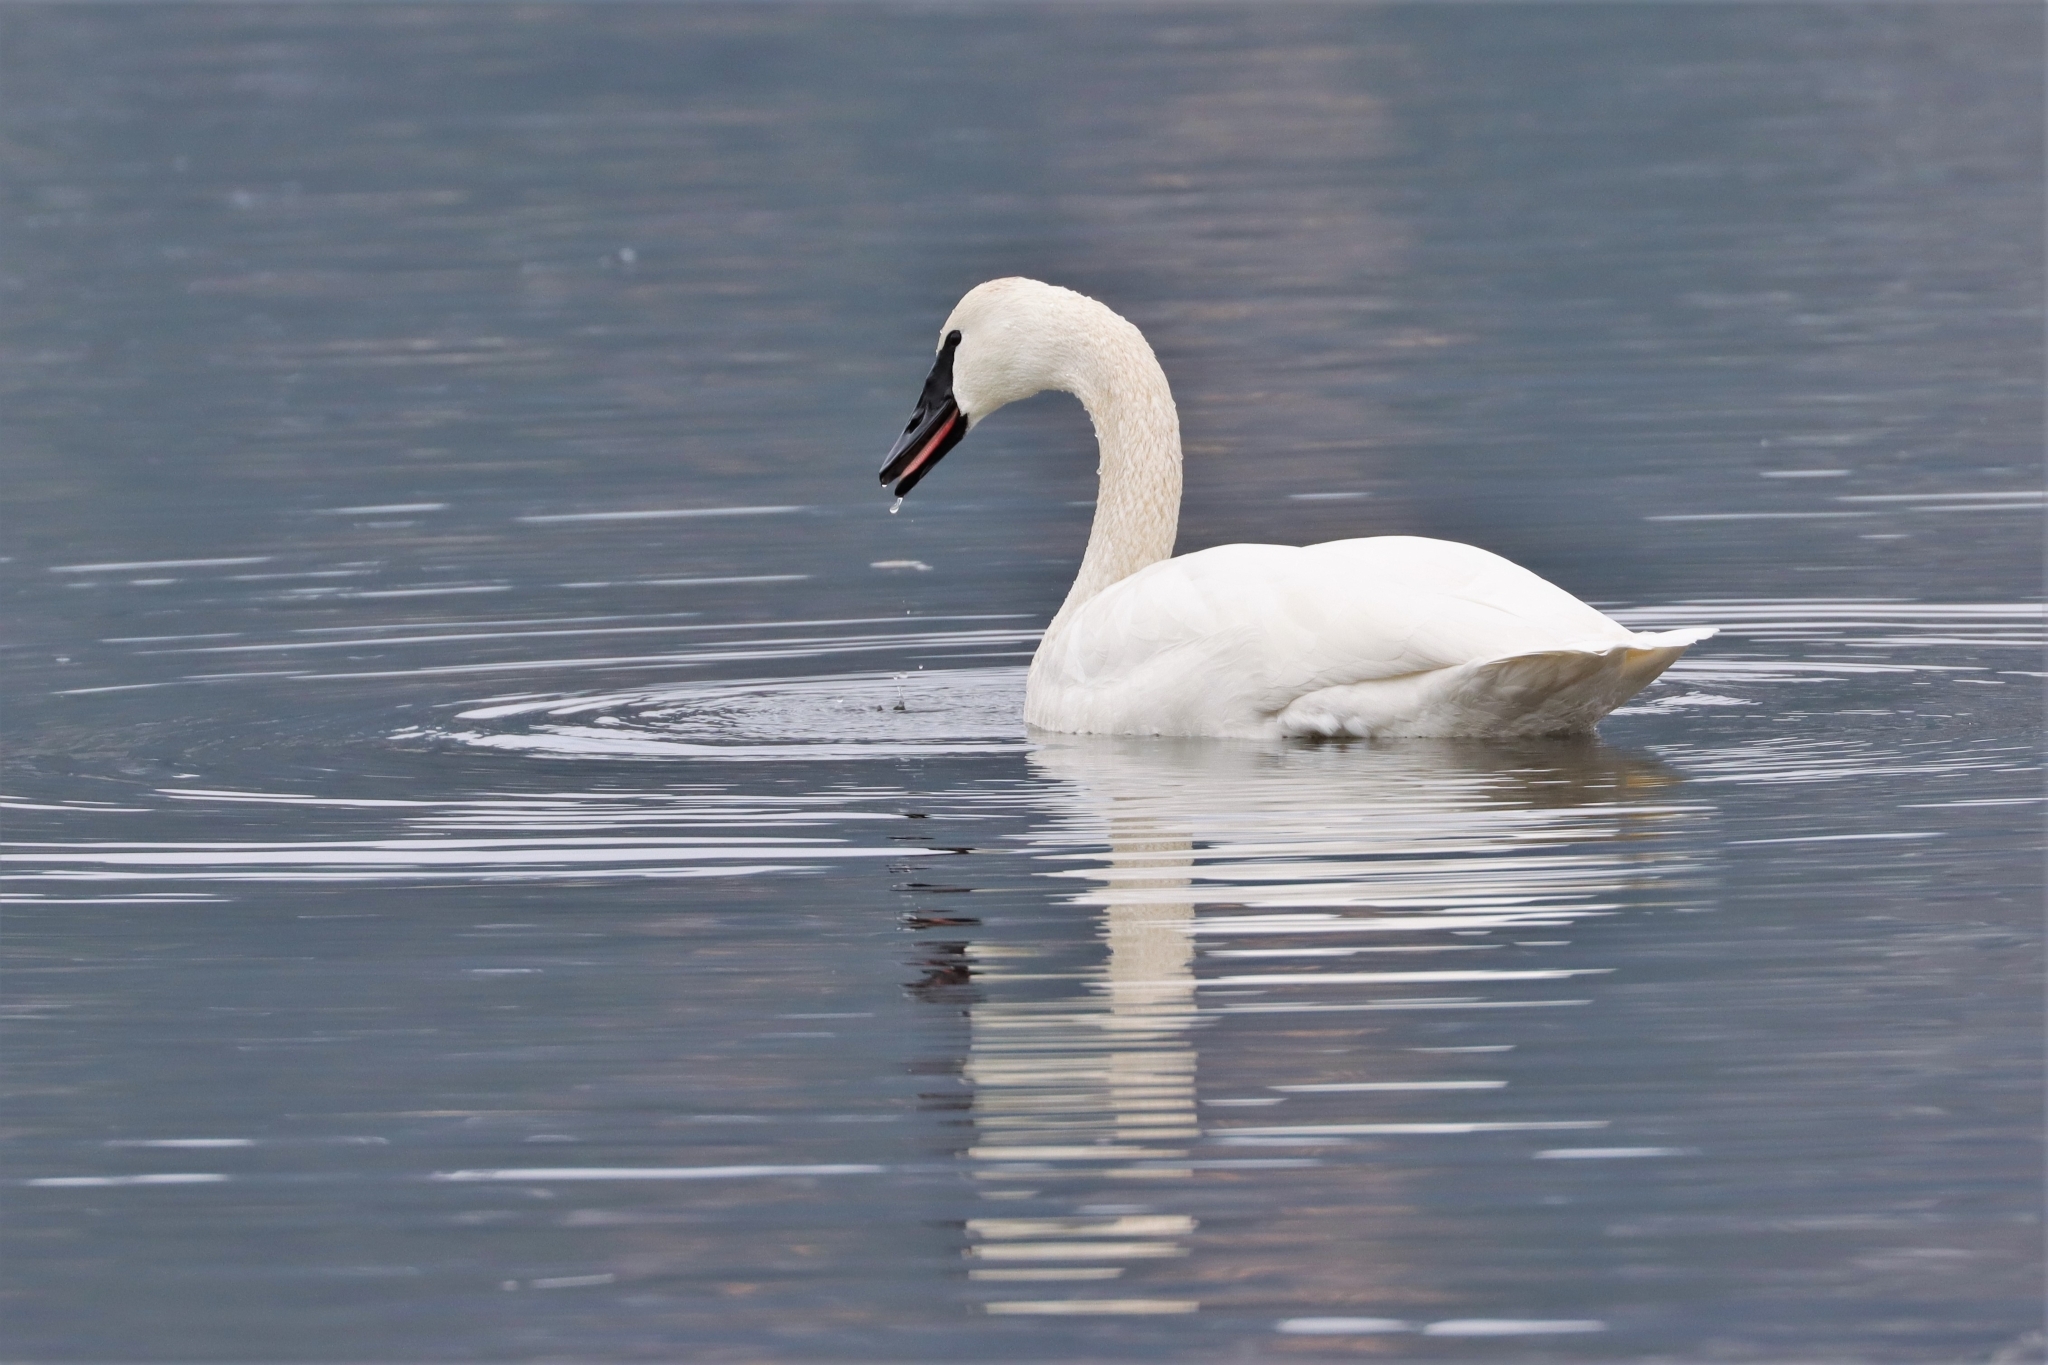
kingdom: Animalia
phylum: Chordata
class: Aves
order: Anseriformes
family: Anatidae
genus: Cygnus
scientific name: Cygnus buccinator
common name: Trumpeter swan
